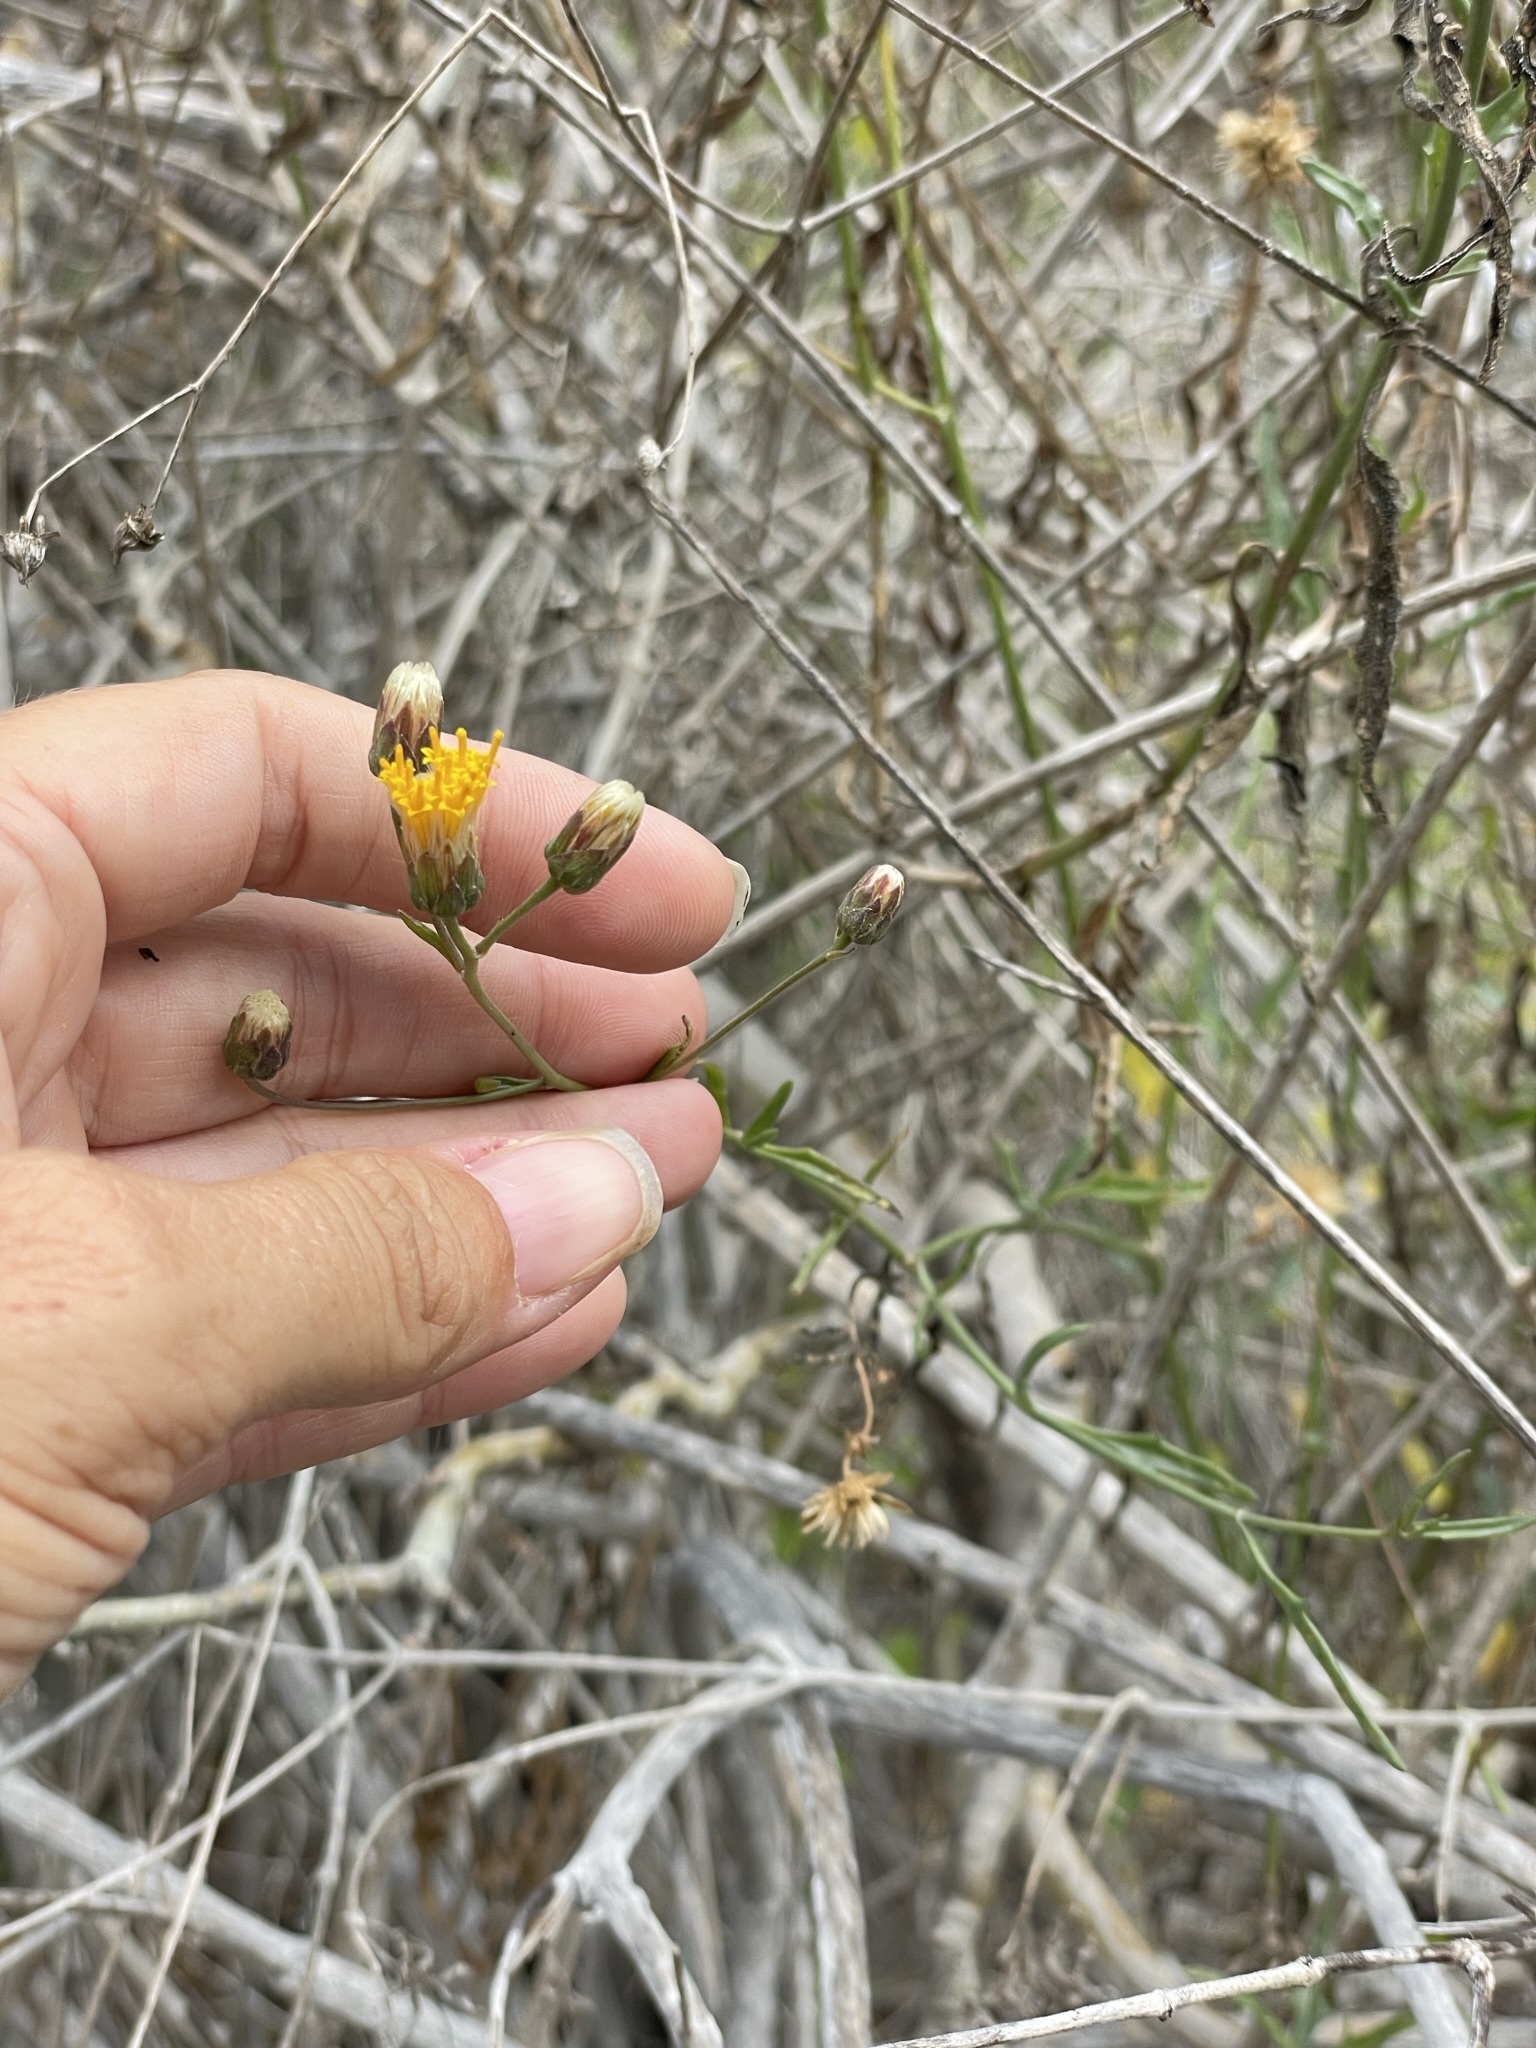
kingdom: Plantae
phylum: Tracheophyta
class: Magnoliopsida
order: Asterales
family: Asteraceae
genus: Bebbia
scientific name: Bebbia juncea
